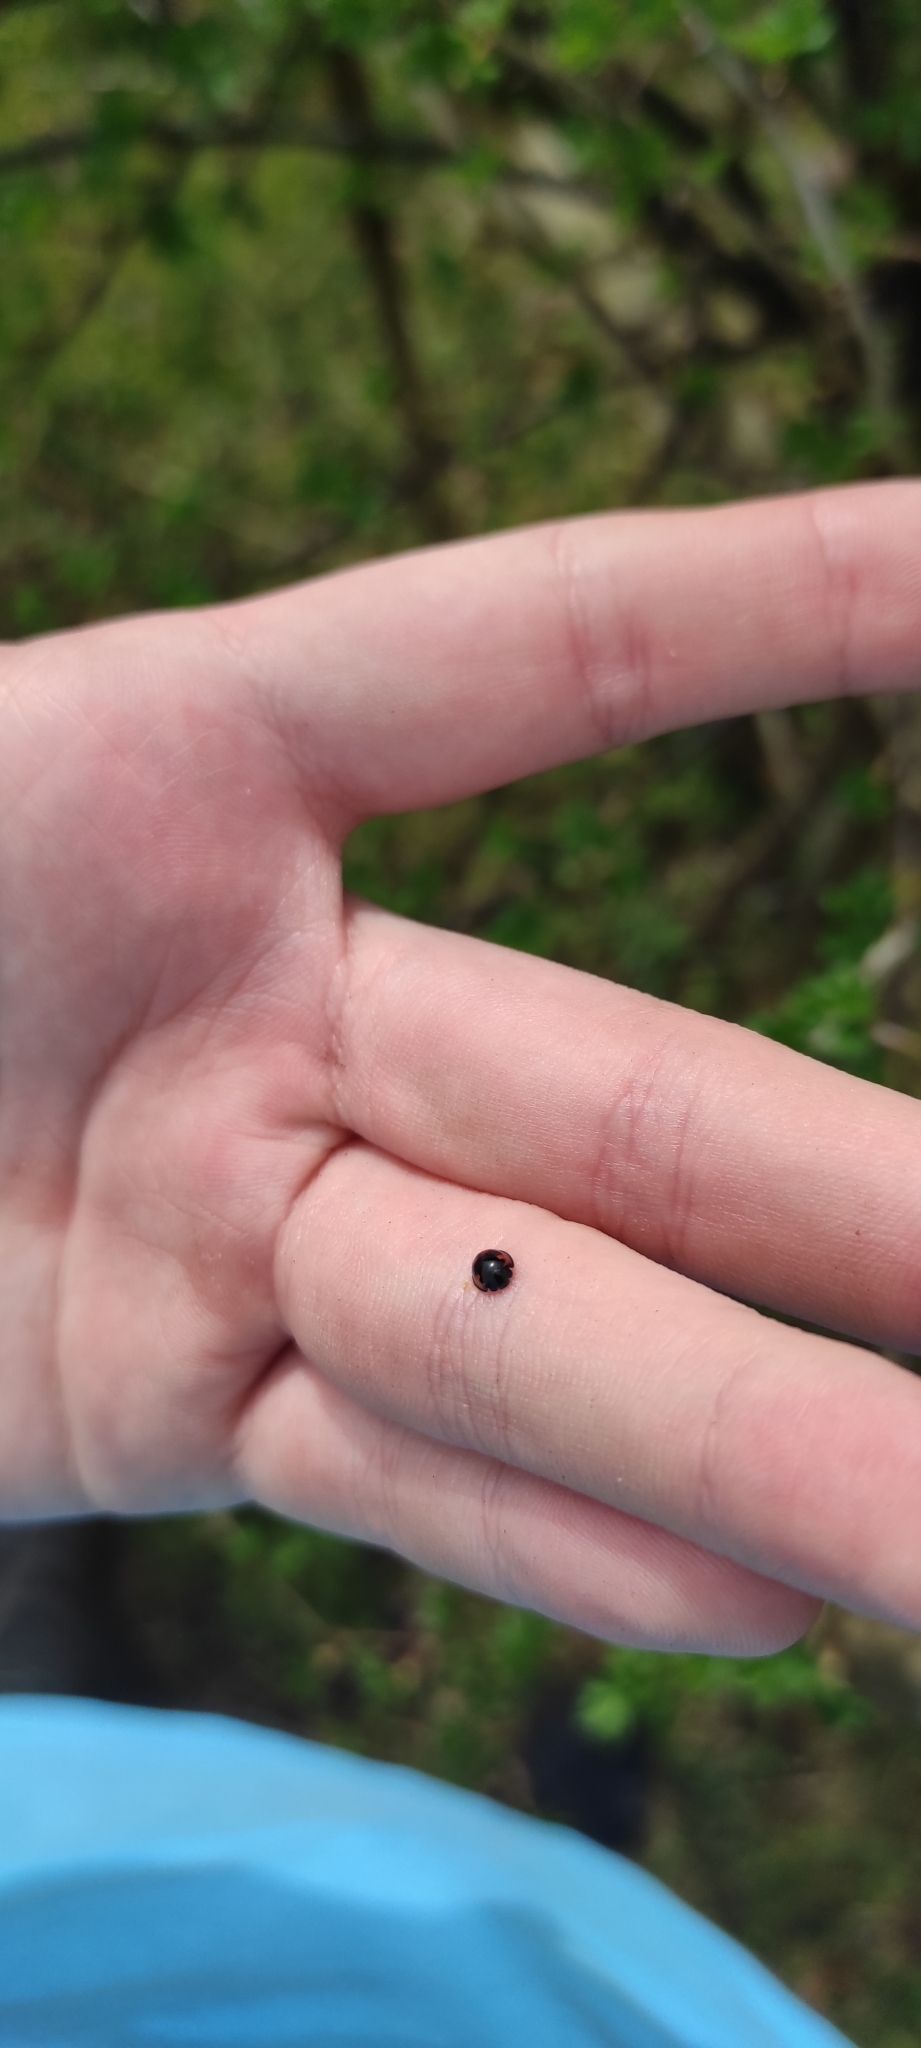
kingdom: Animalia
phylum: Arthropoda
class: Insecta
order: Coleoptera
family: Coccinellidae
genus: Brumus
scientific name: Brumus quadripustulatus
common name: Ladybird beetle
